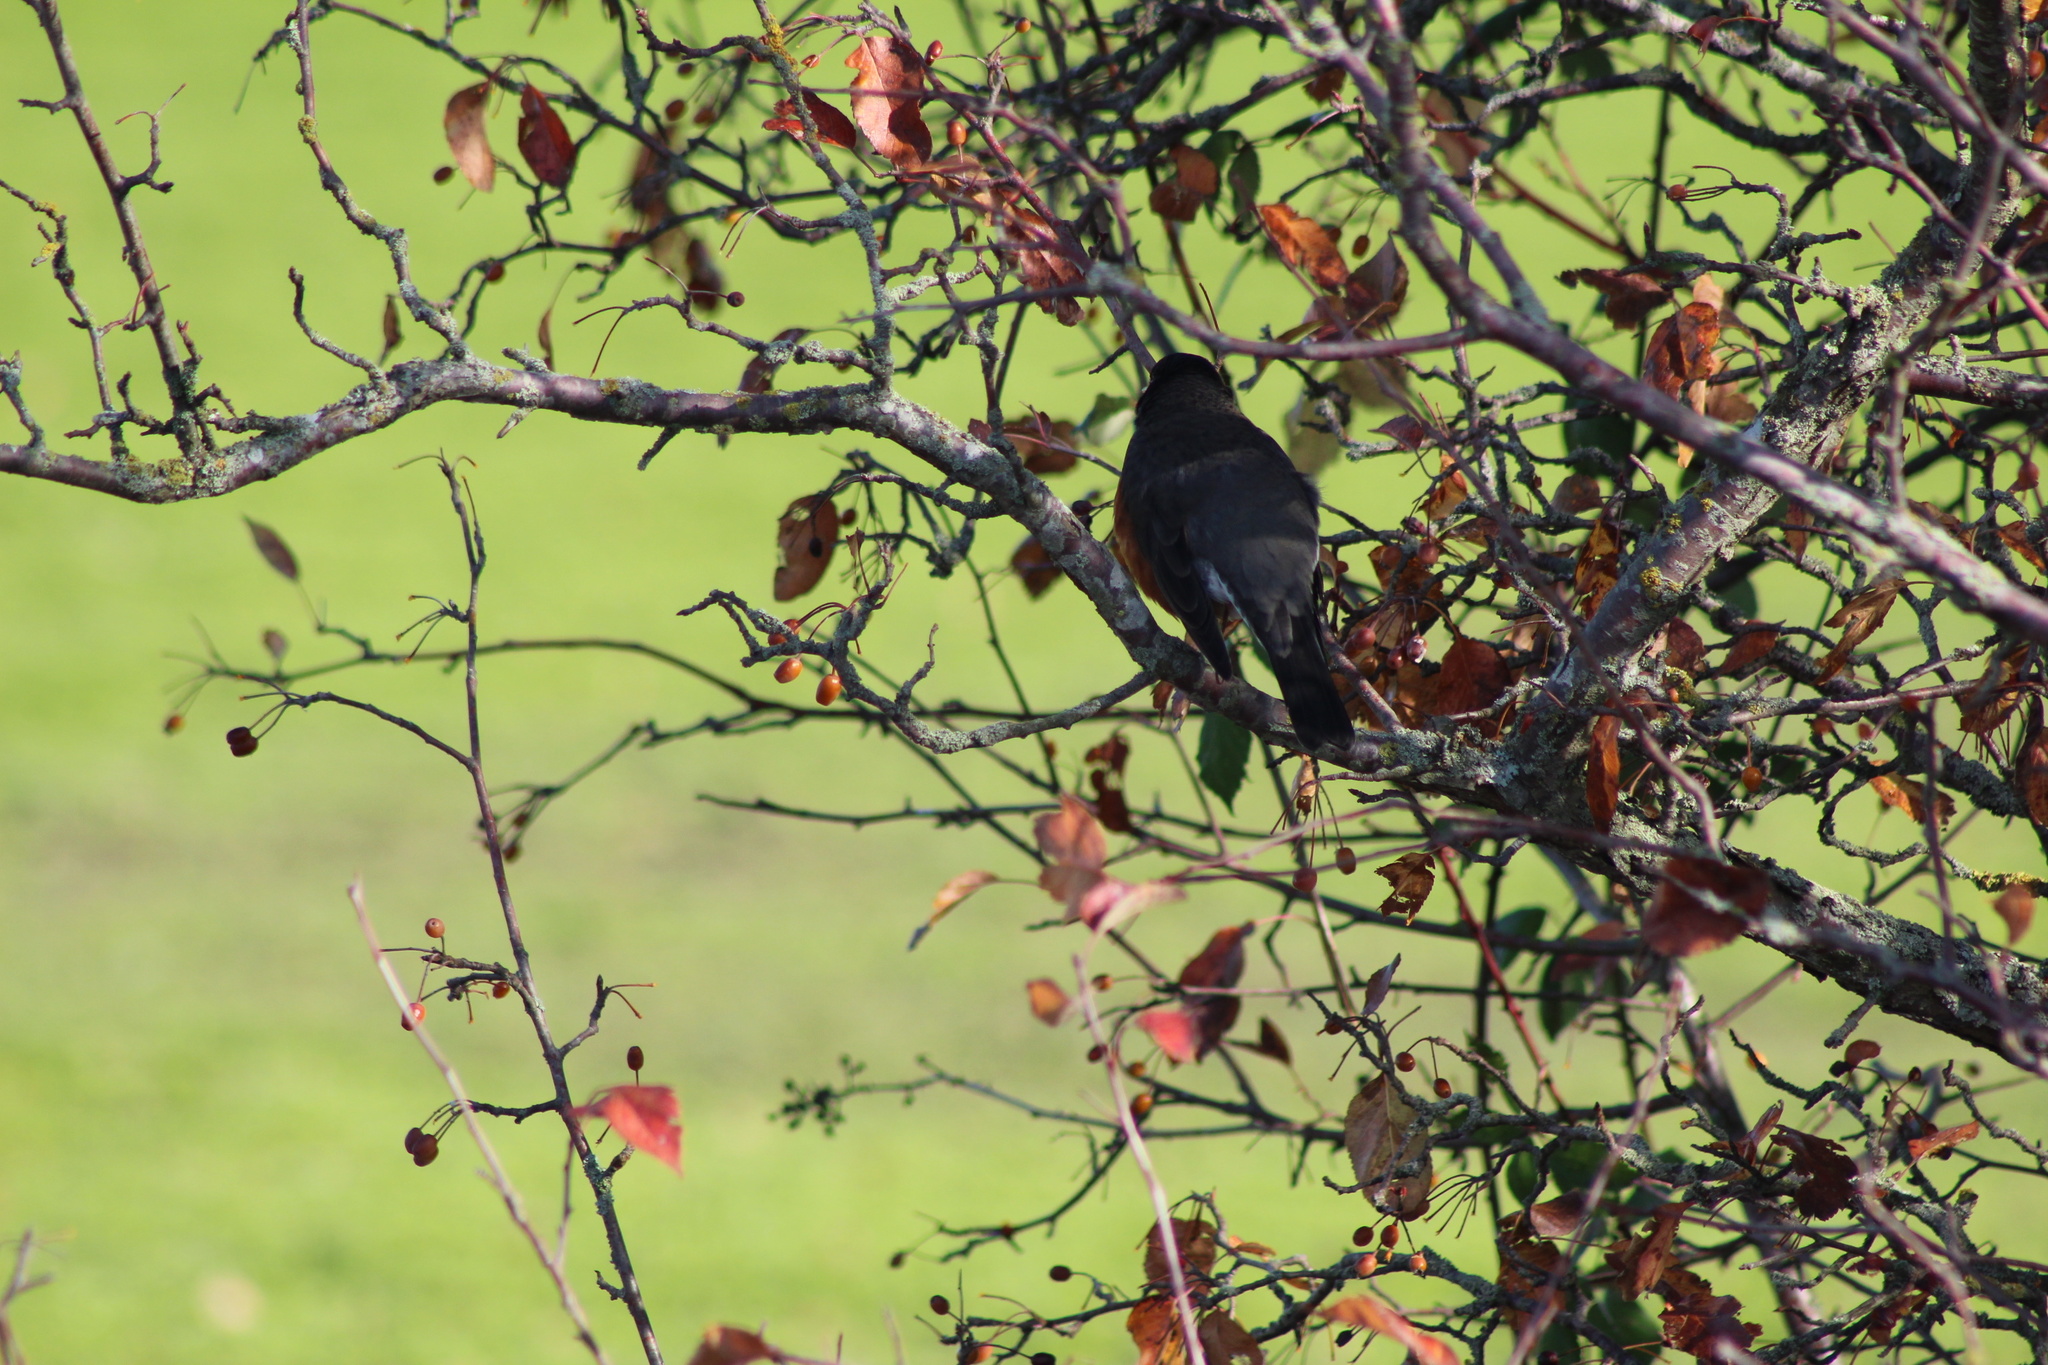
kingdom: Animalia
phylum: Chordata
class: Aves
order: Passeriformes
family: Turdidae
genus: Turdus
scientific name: Turdus migratorius
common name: American robin
